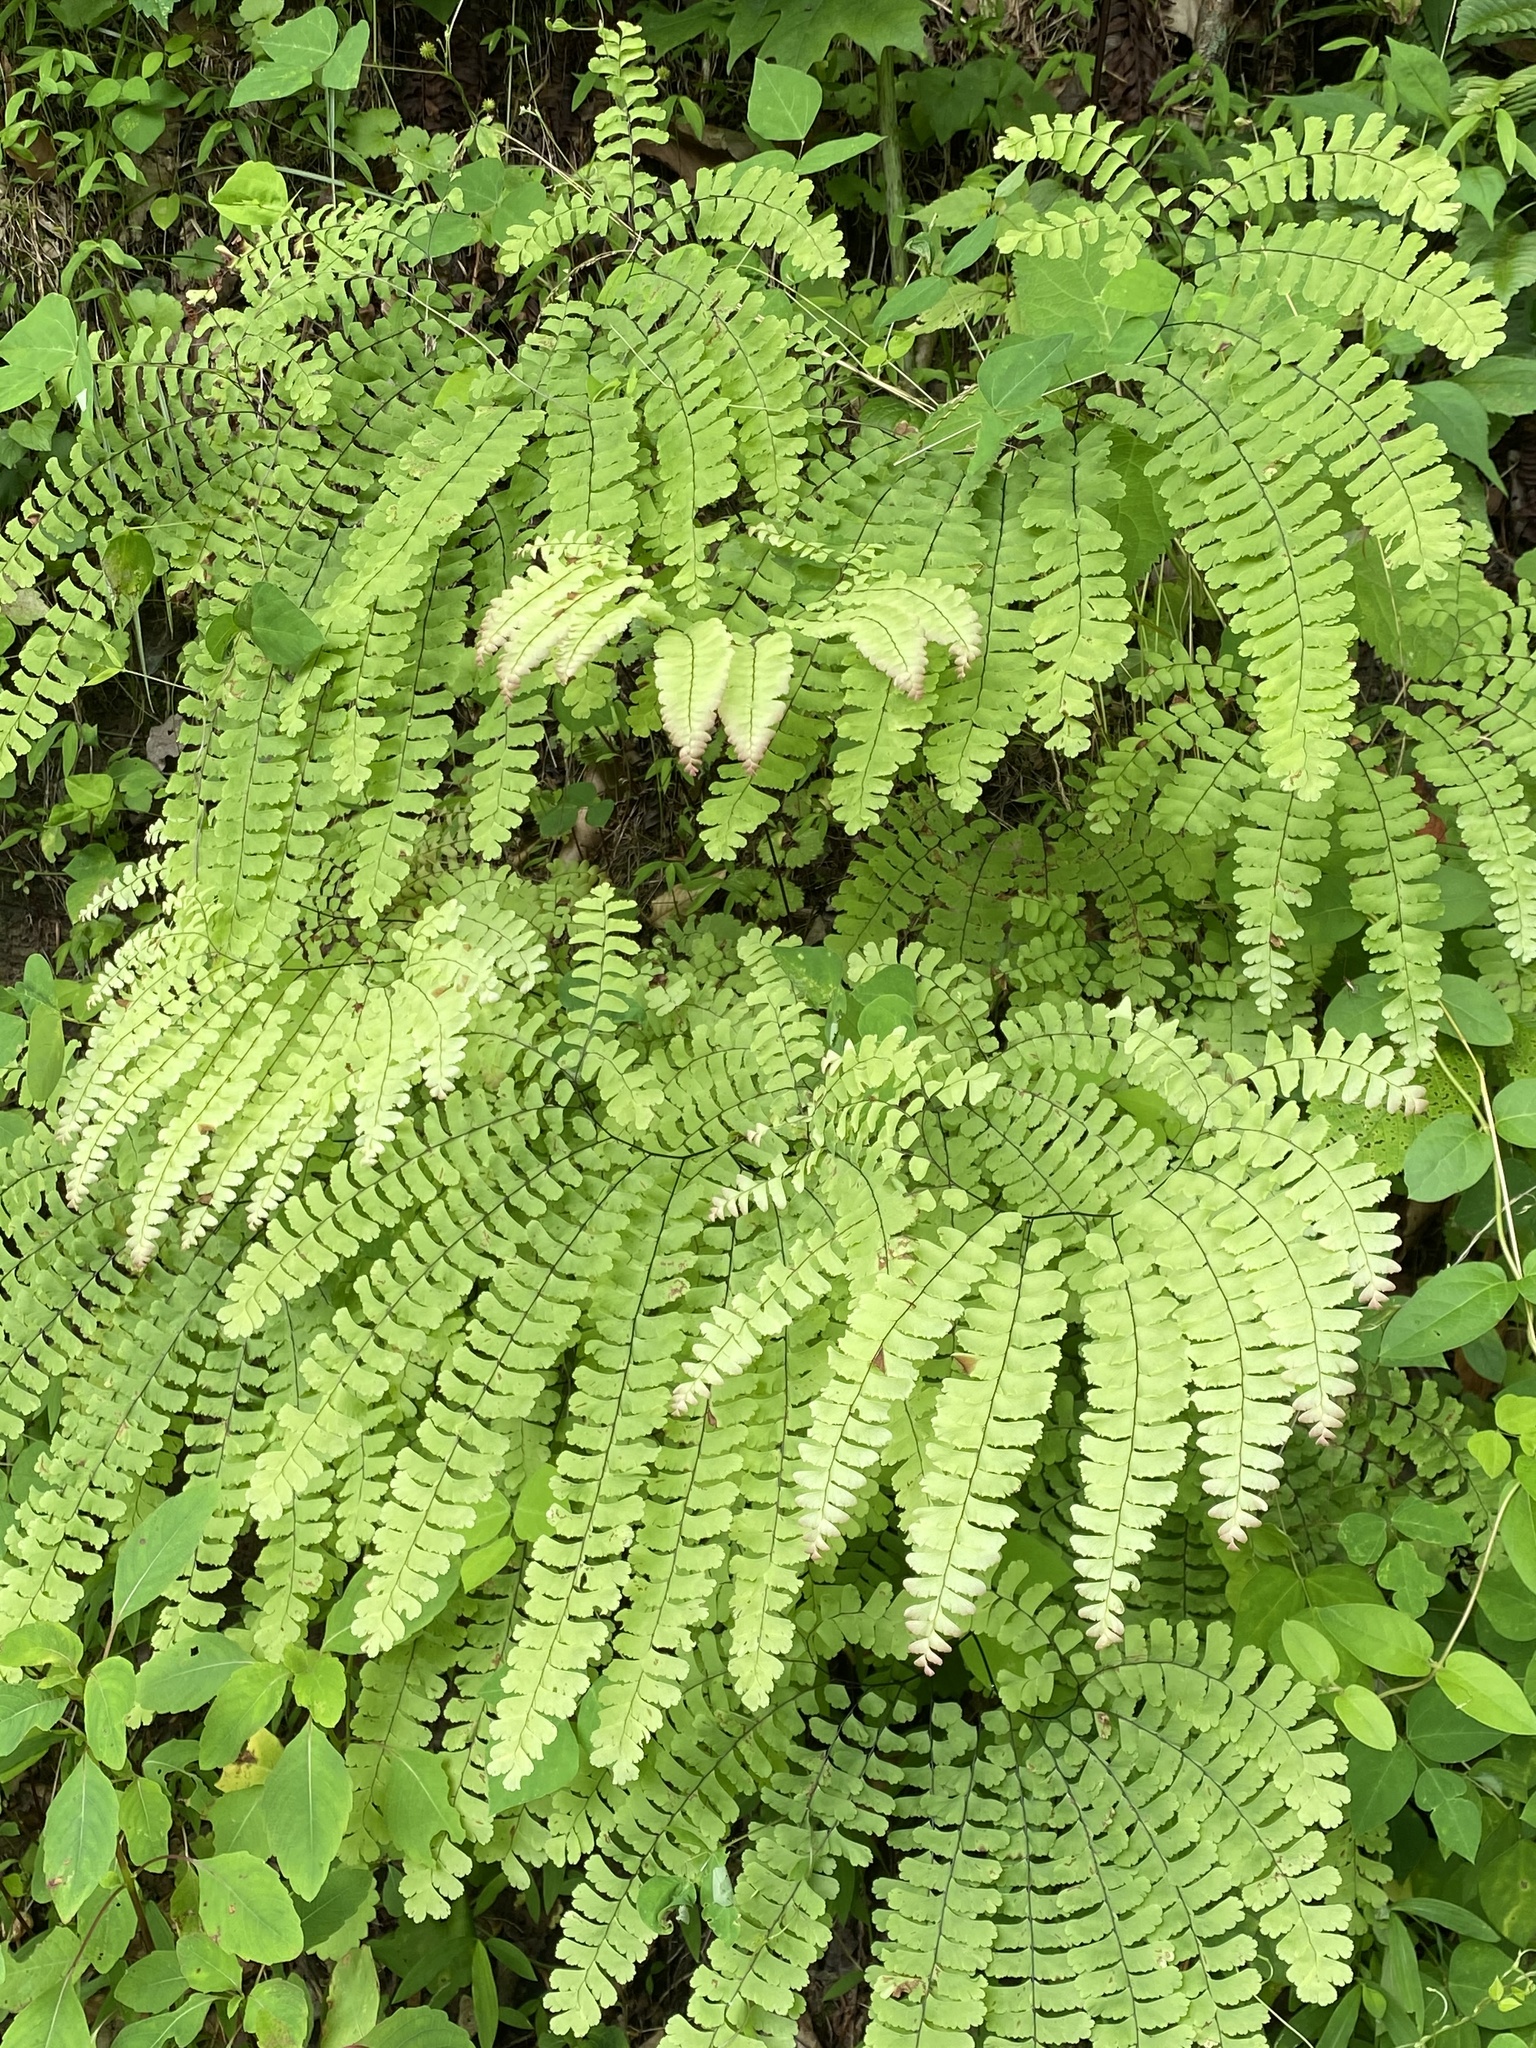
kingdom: Plantae
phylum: Tracheophyta
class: Polypodiopsida
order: Polypodiales
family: Pteridaceae
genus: Adiantum
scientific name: Adiantum pedatum
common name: Five-finger fern
